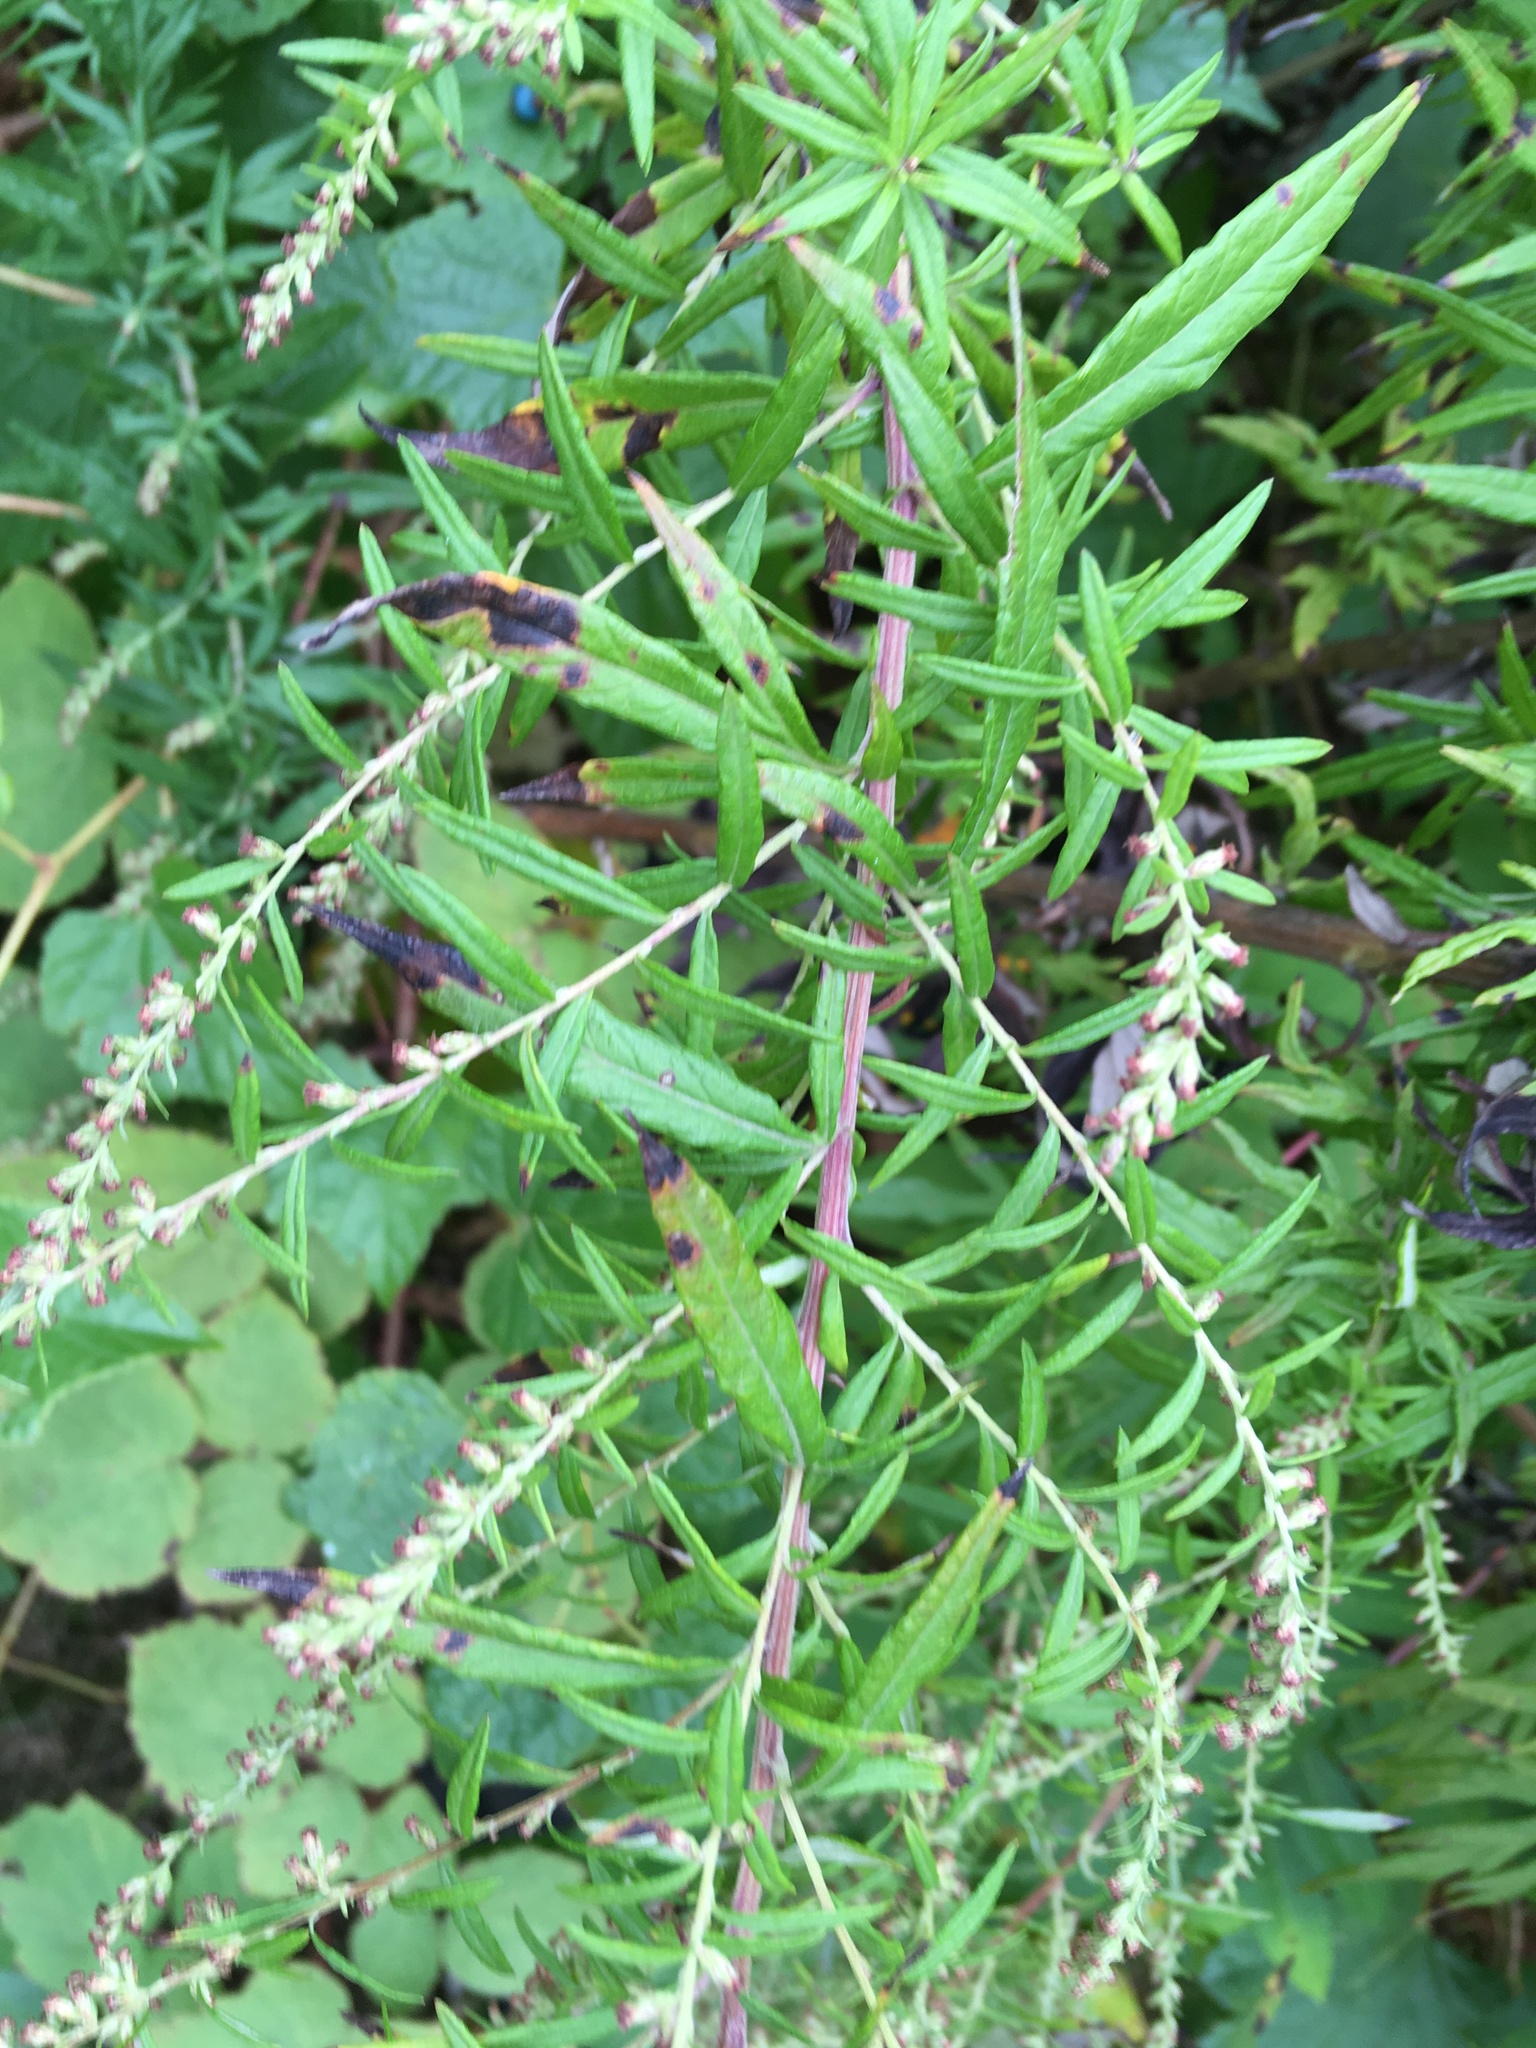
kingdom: Plantae
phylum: Tracheophyta
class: Magnoliopsida
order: Asterales
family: Asteraceae
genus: Artemisia
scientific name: Artemisia vulgaris
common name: Mugwort
